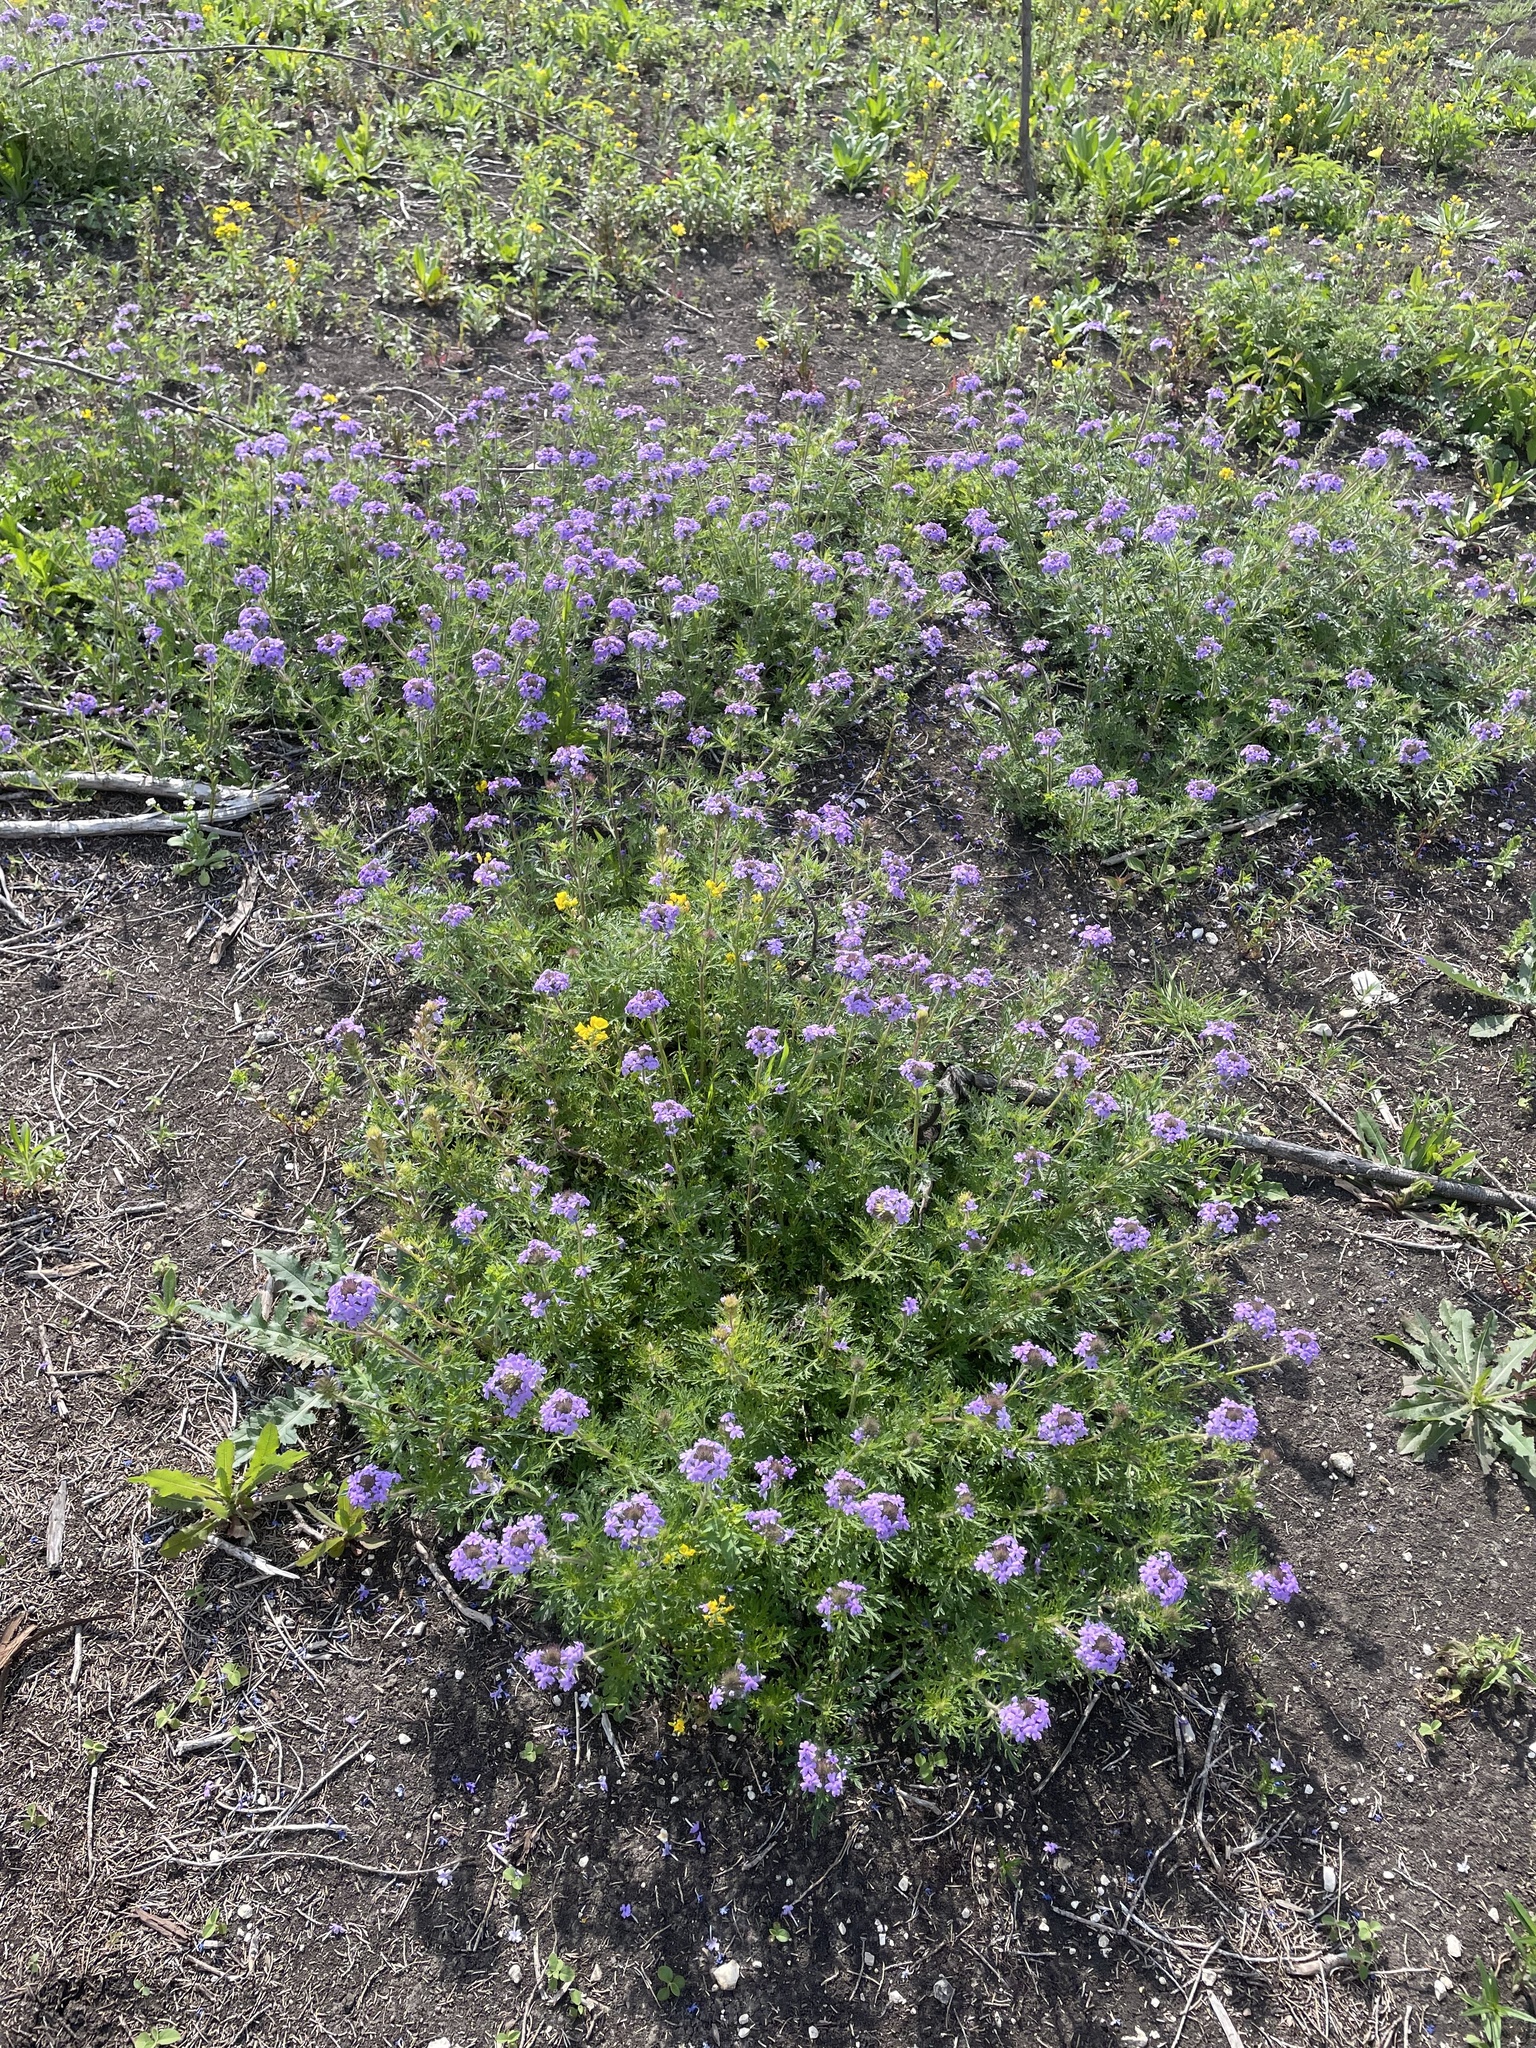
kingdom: Plantae
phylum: Tracheophyta
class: Magnoliopsida
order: Lamiales
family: Verbenaceae
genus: Verbena
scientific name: Verbena bipinnatifida
